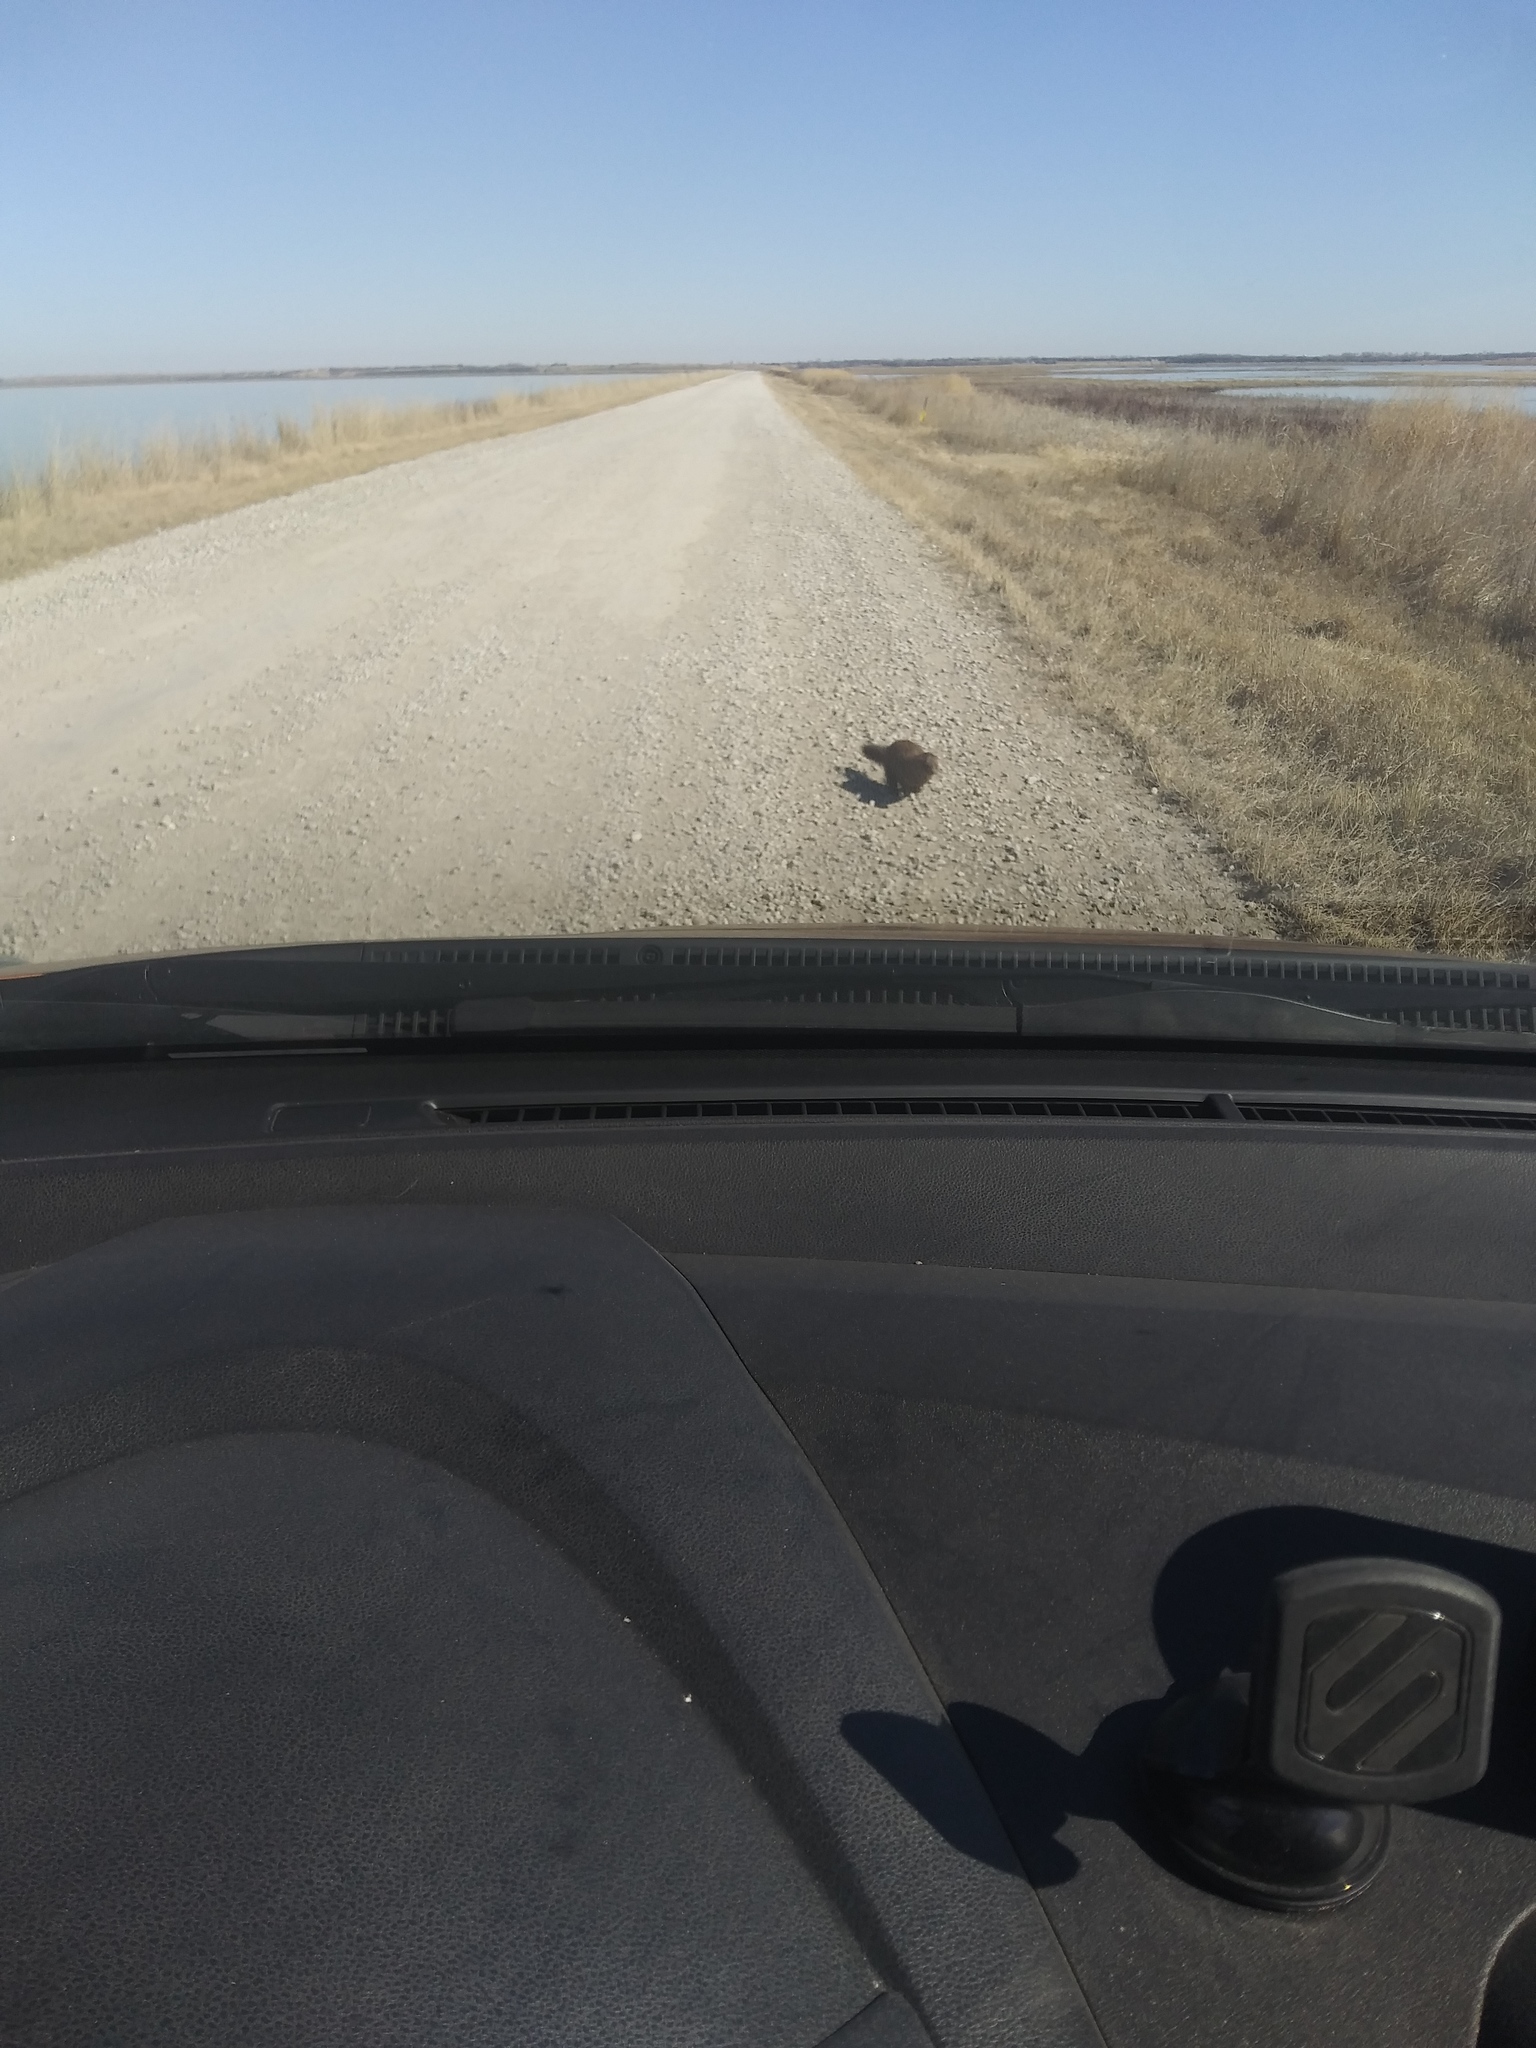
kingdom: Animalia
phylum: Chordata
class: Mammalia
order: Carnivora
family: Mustelidae
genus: Mustela
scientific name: Mustela
